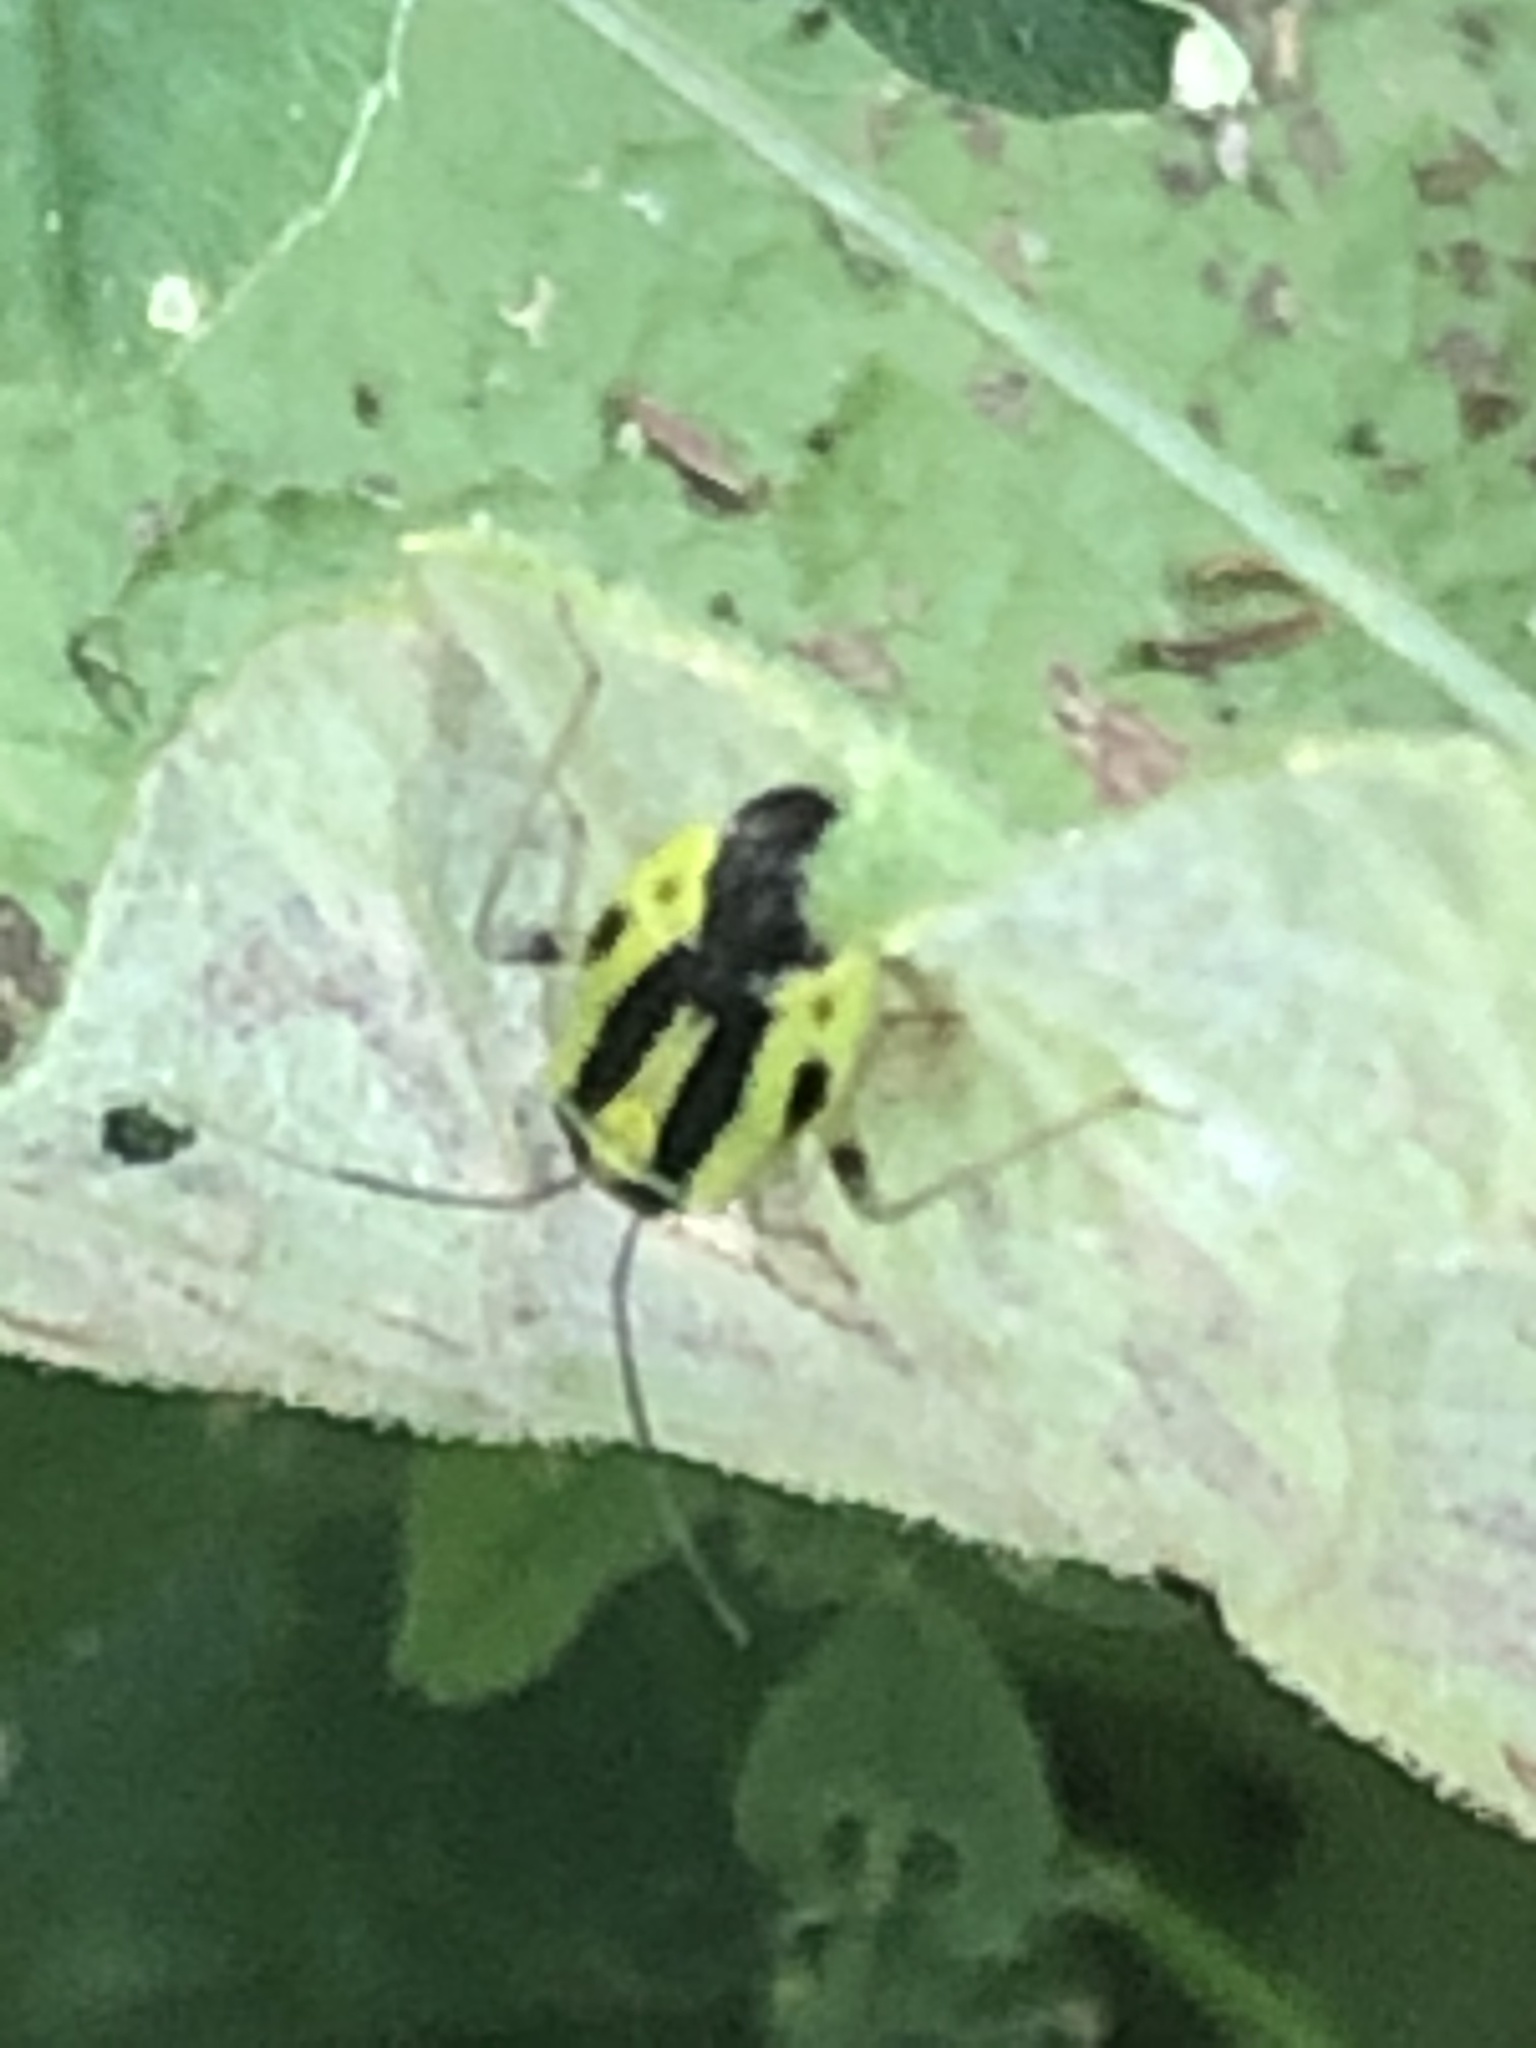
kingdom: Animalia
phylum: Arthropoda
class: Insecta
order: Hemiptera
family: Miridae
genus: Poecilocapsus
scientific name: Poecilocapsus lineatus
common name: Four-lined plant bug
